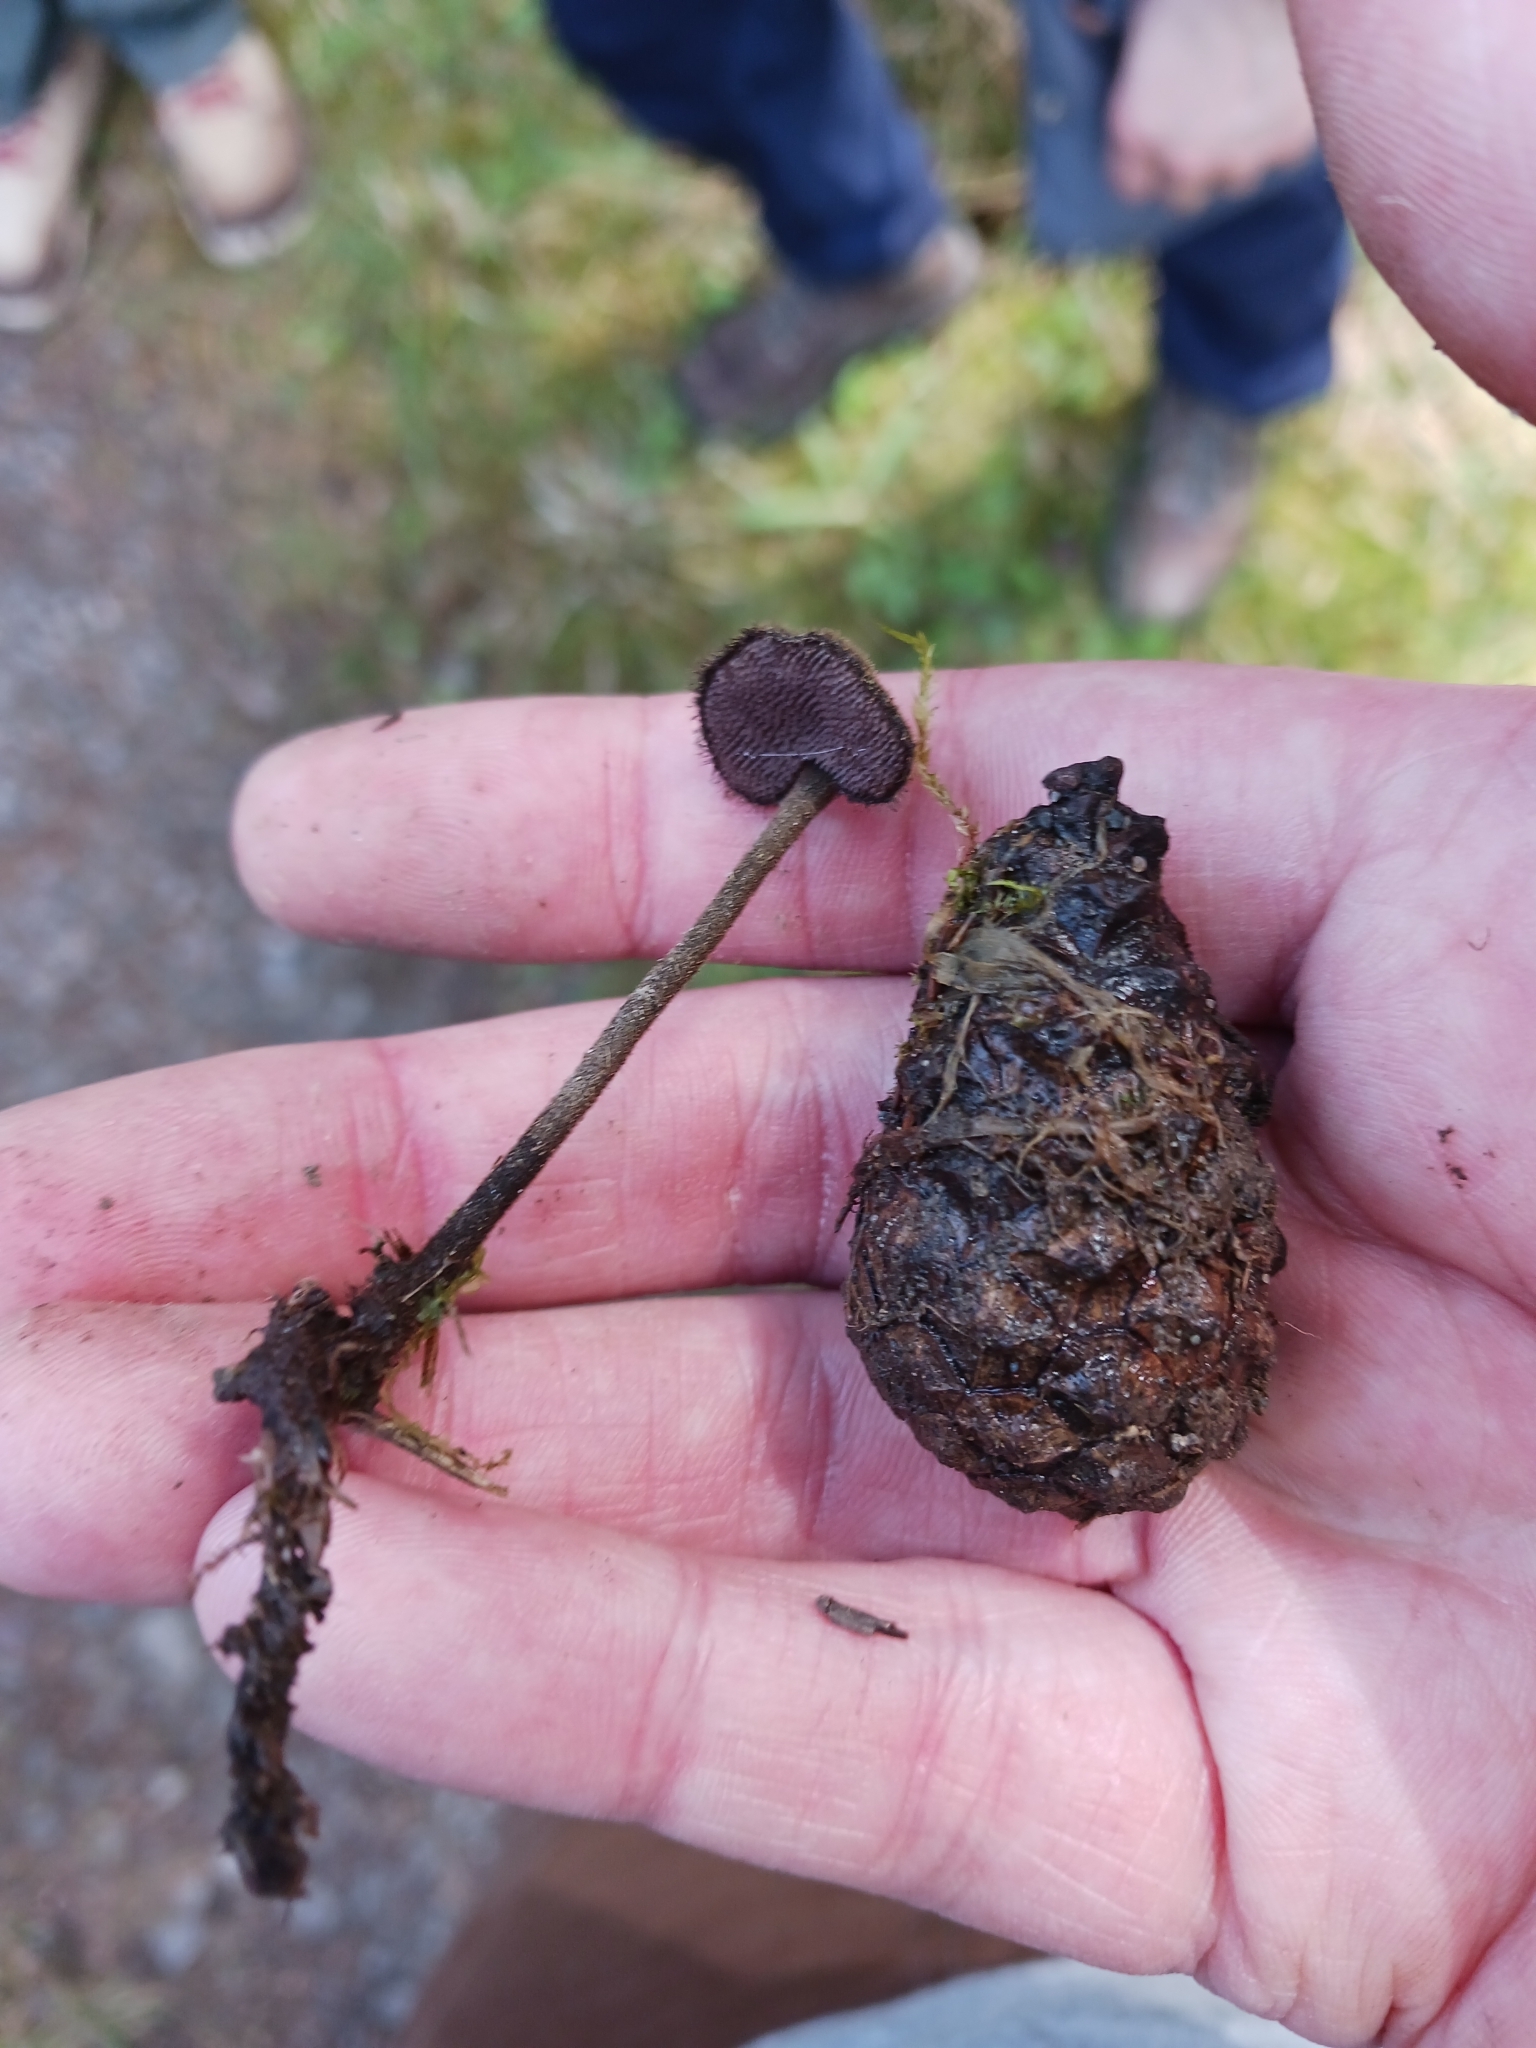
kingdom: Fungi
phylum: Basidiomycota
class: Agaricomycetes
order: Russulales
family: Auriscalpiaceae
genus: Auriscalpium
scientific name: Auriscalpium vulgare
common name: Earpick fungus
